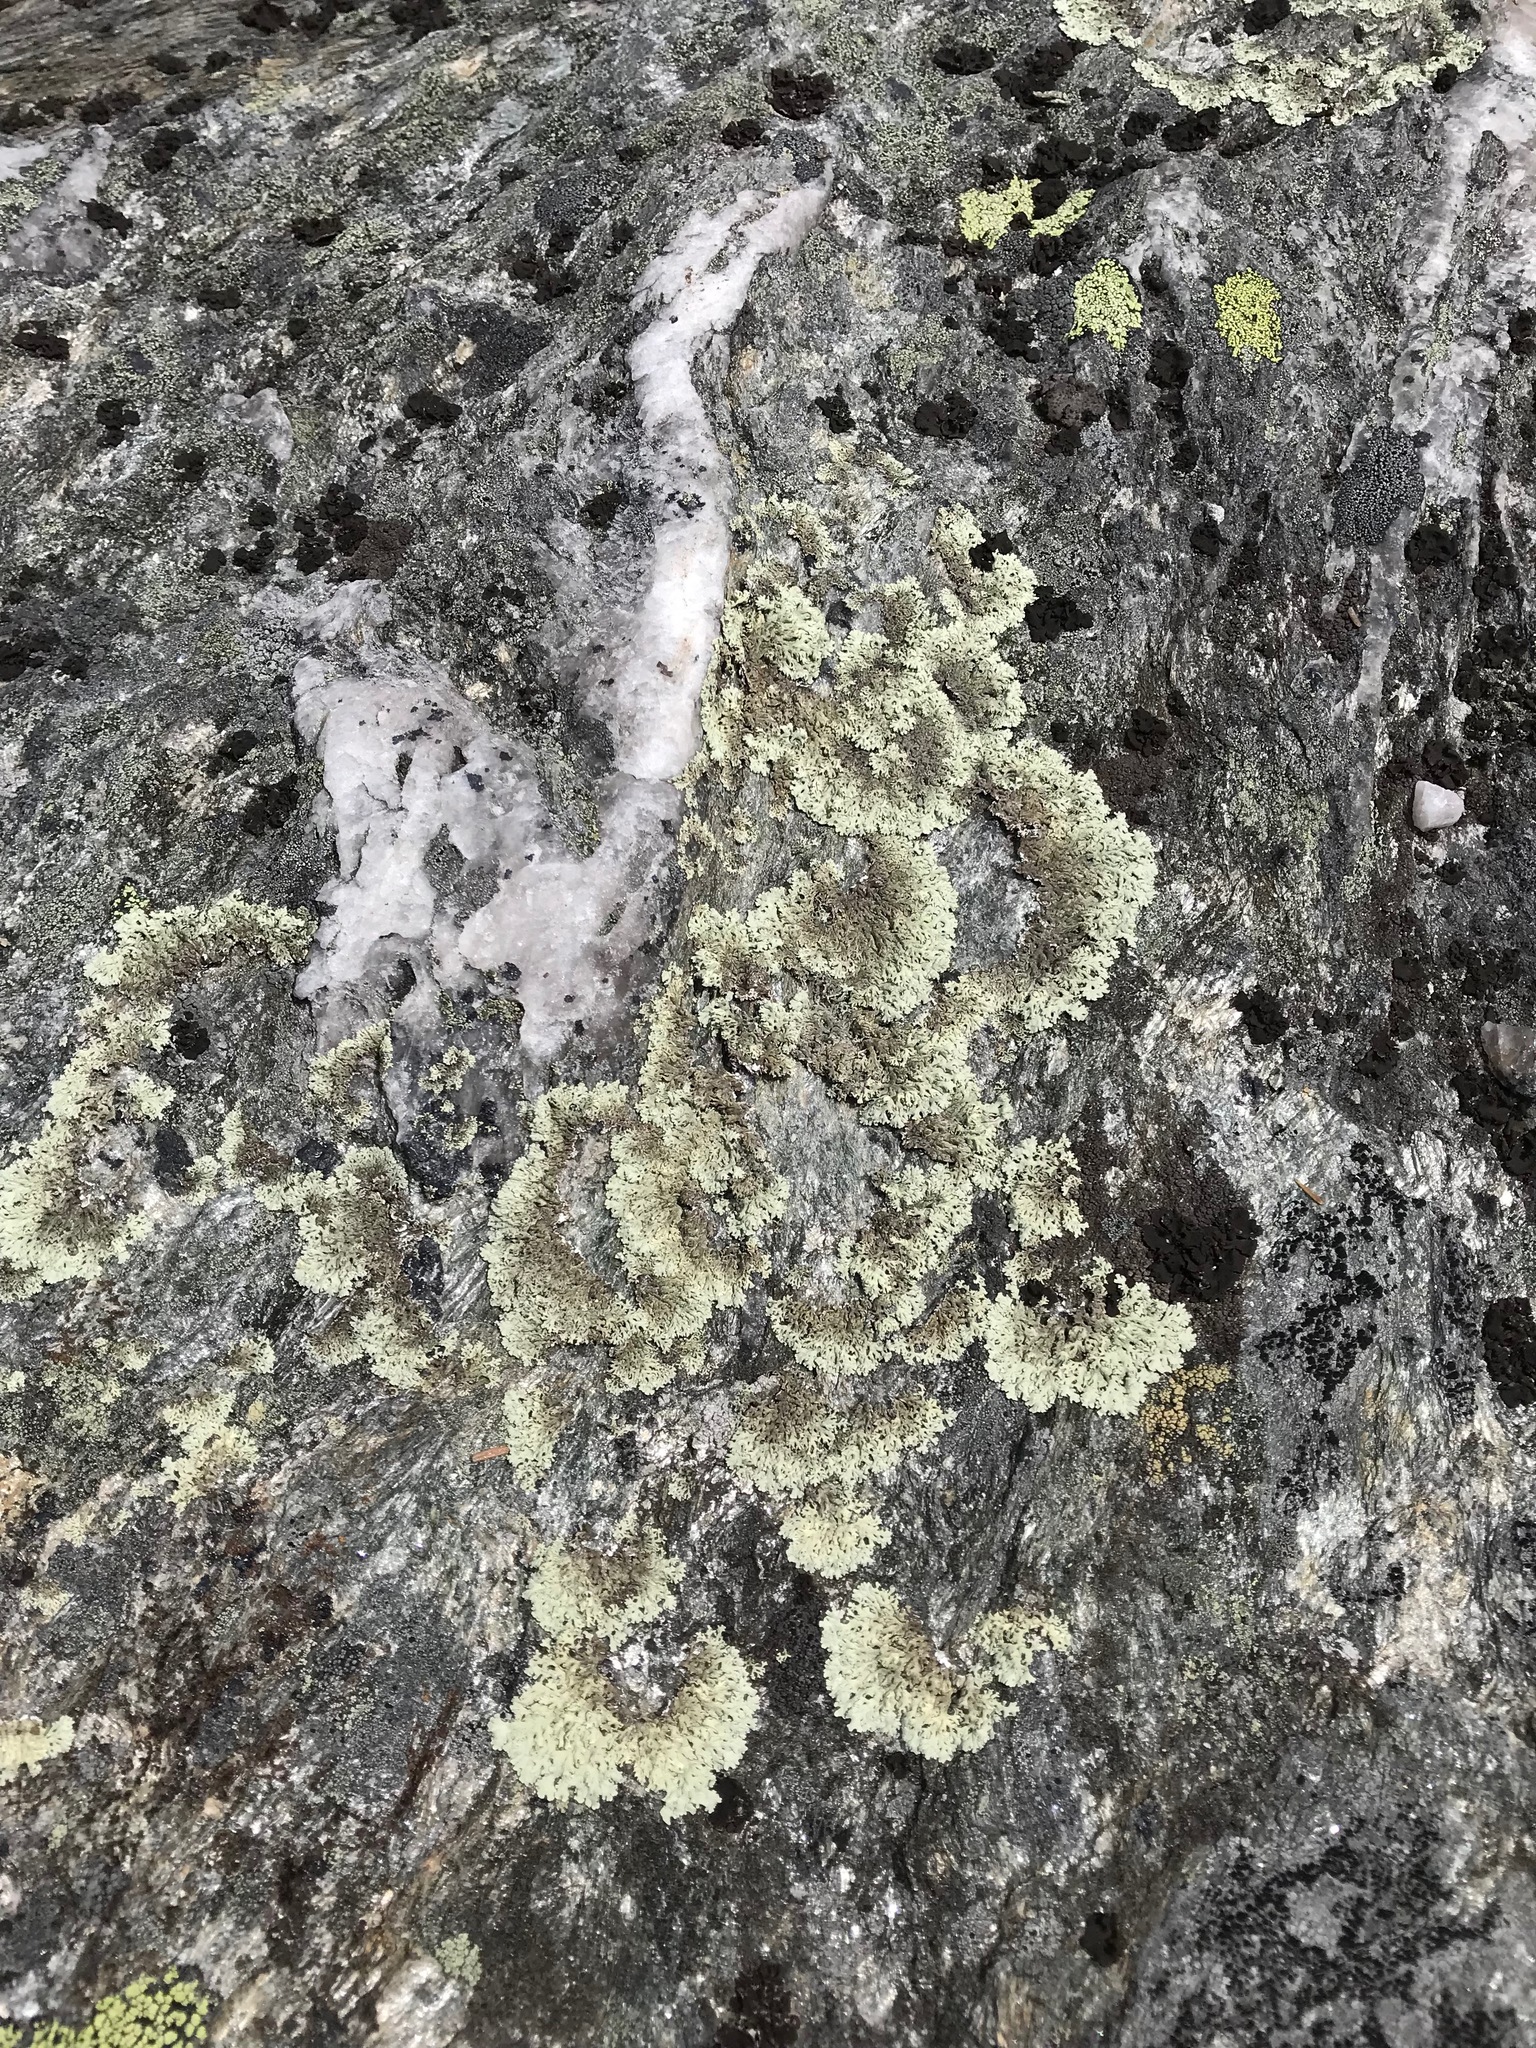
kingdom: Fungi
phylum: Ascomycota
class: Lecanoromycetes
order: Lecanorales
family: Parmeliaceae
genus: Arctoparmelia
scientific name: Arctoparmelia centrifuga
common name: Concentric ring lichen
